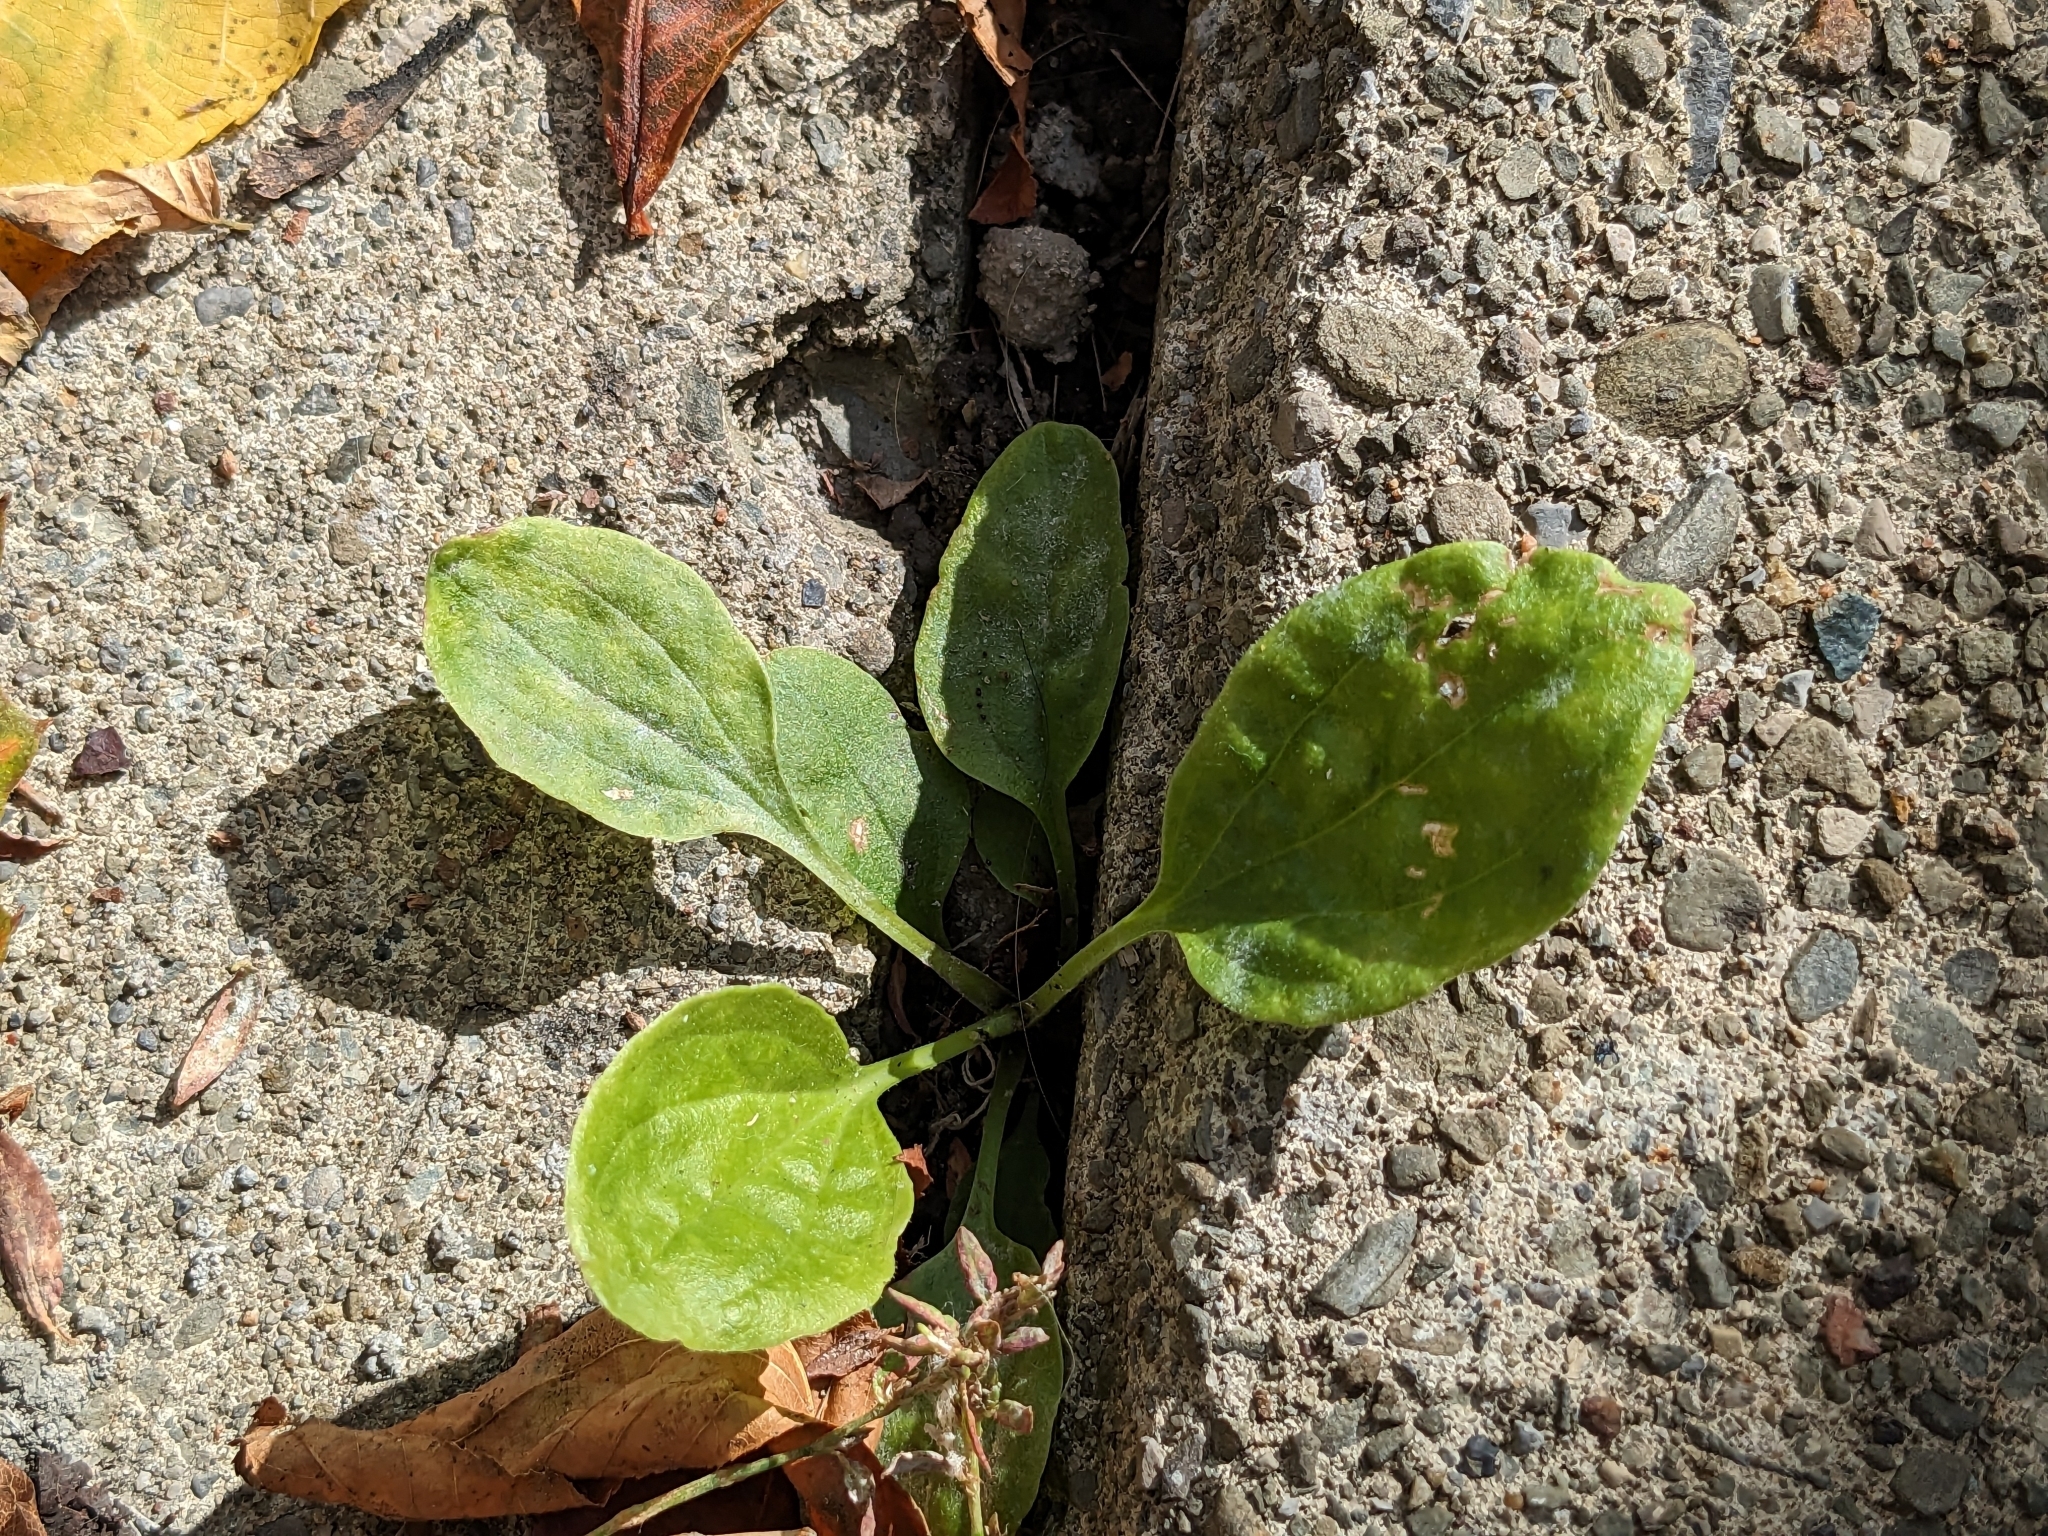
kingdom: Plantae
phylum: Tracheophyta
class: Magnoliopsida
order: Lamiales
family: Plantaginaceae
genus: Plantago
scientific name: Plantago major
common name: Common plantain
